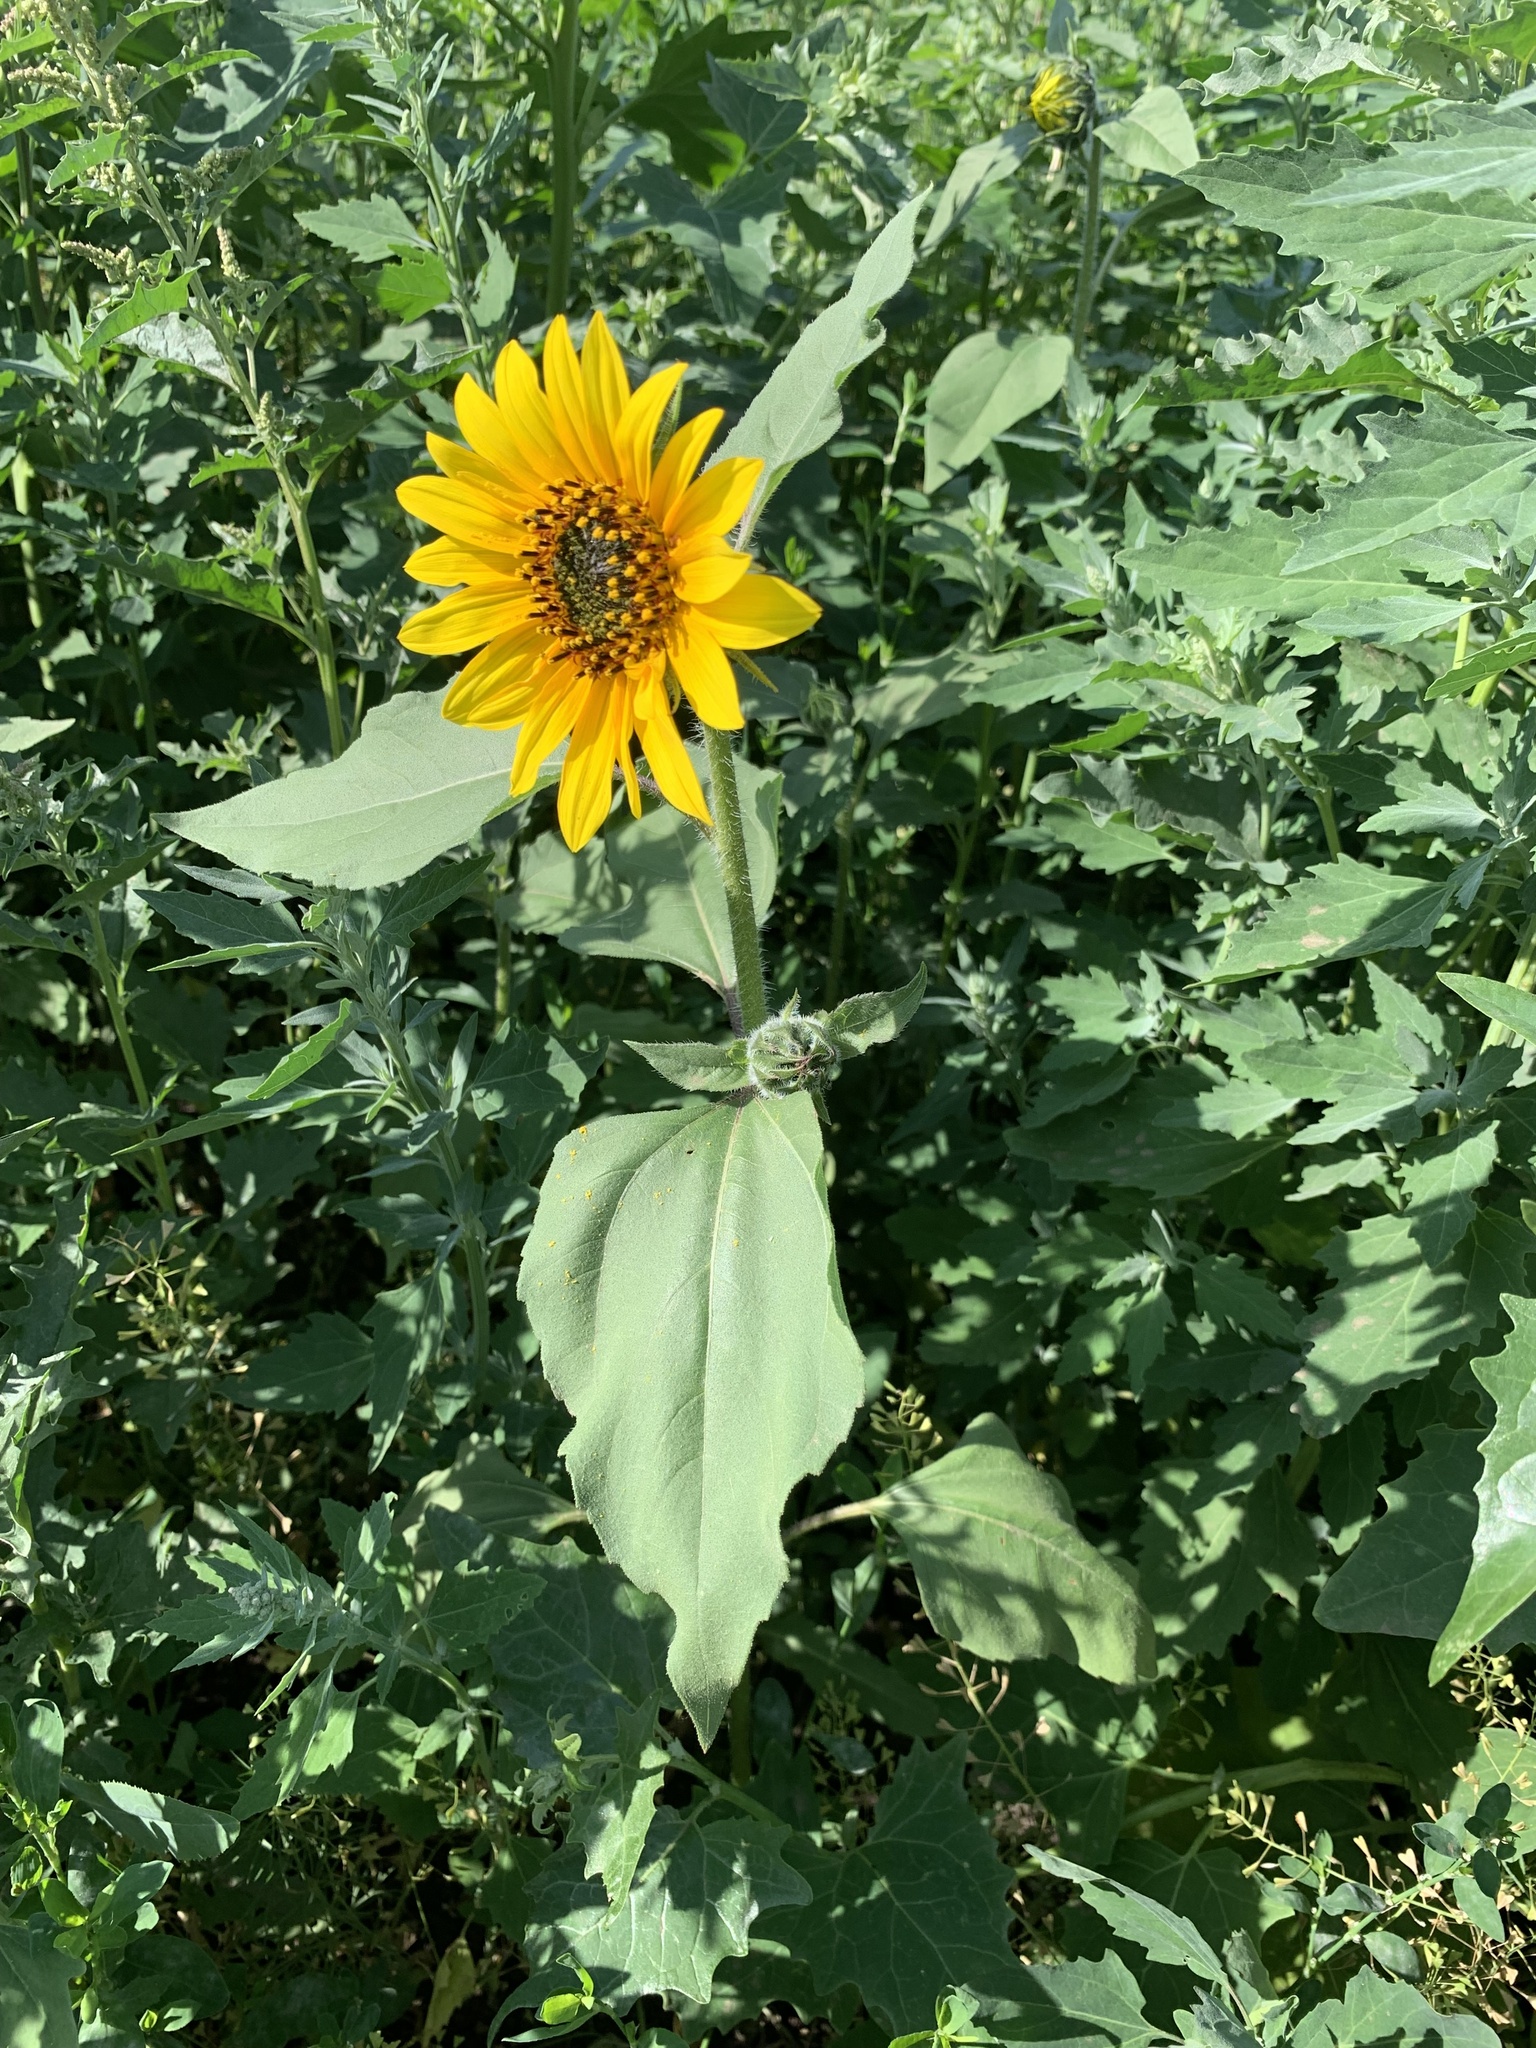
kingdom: Plantae
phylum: Tracheophyta
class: Magnoliopsida
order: Asterales
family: Asteraceae
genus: Helianthus
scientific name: Helianthus annuus
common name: Sunflower
